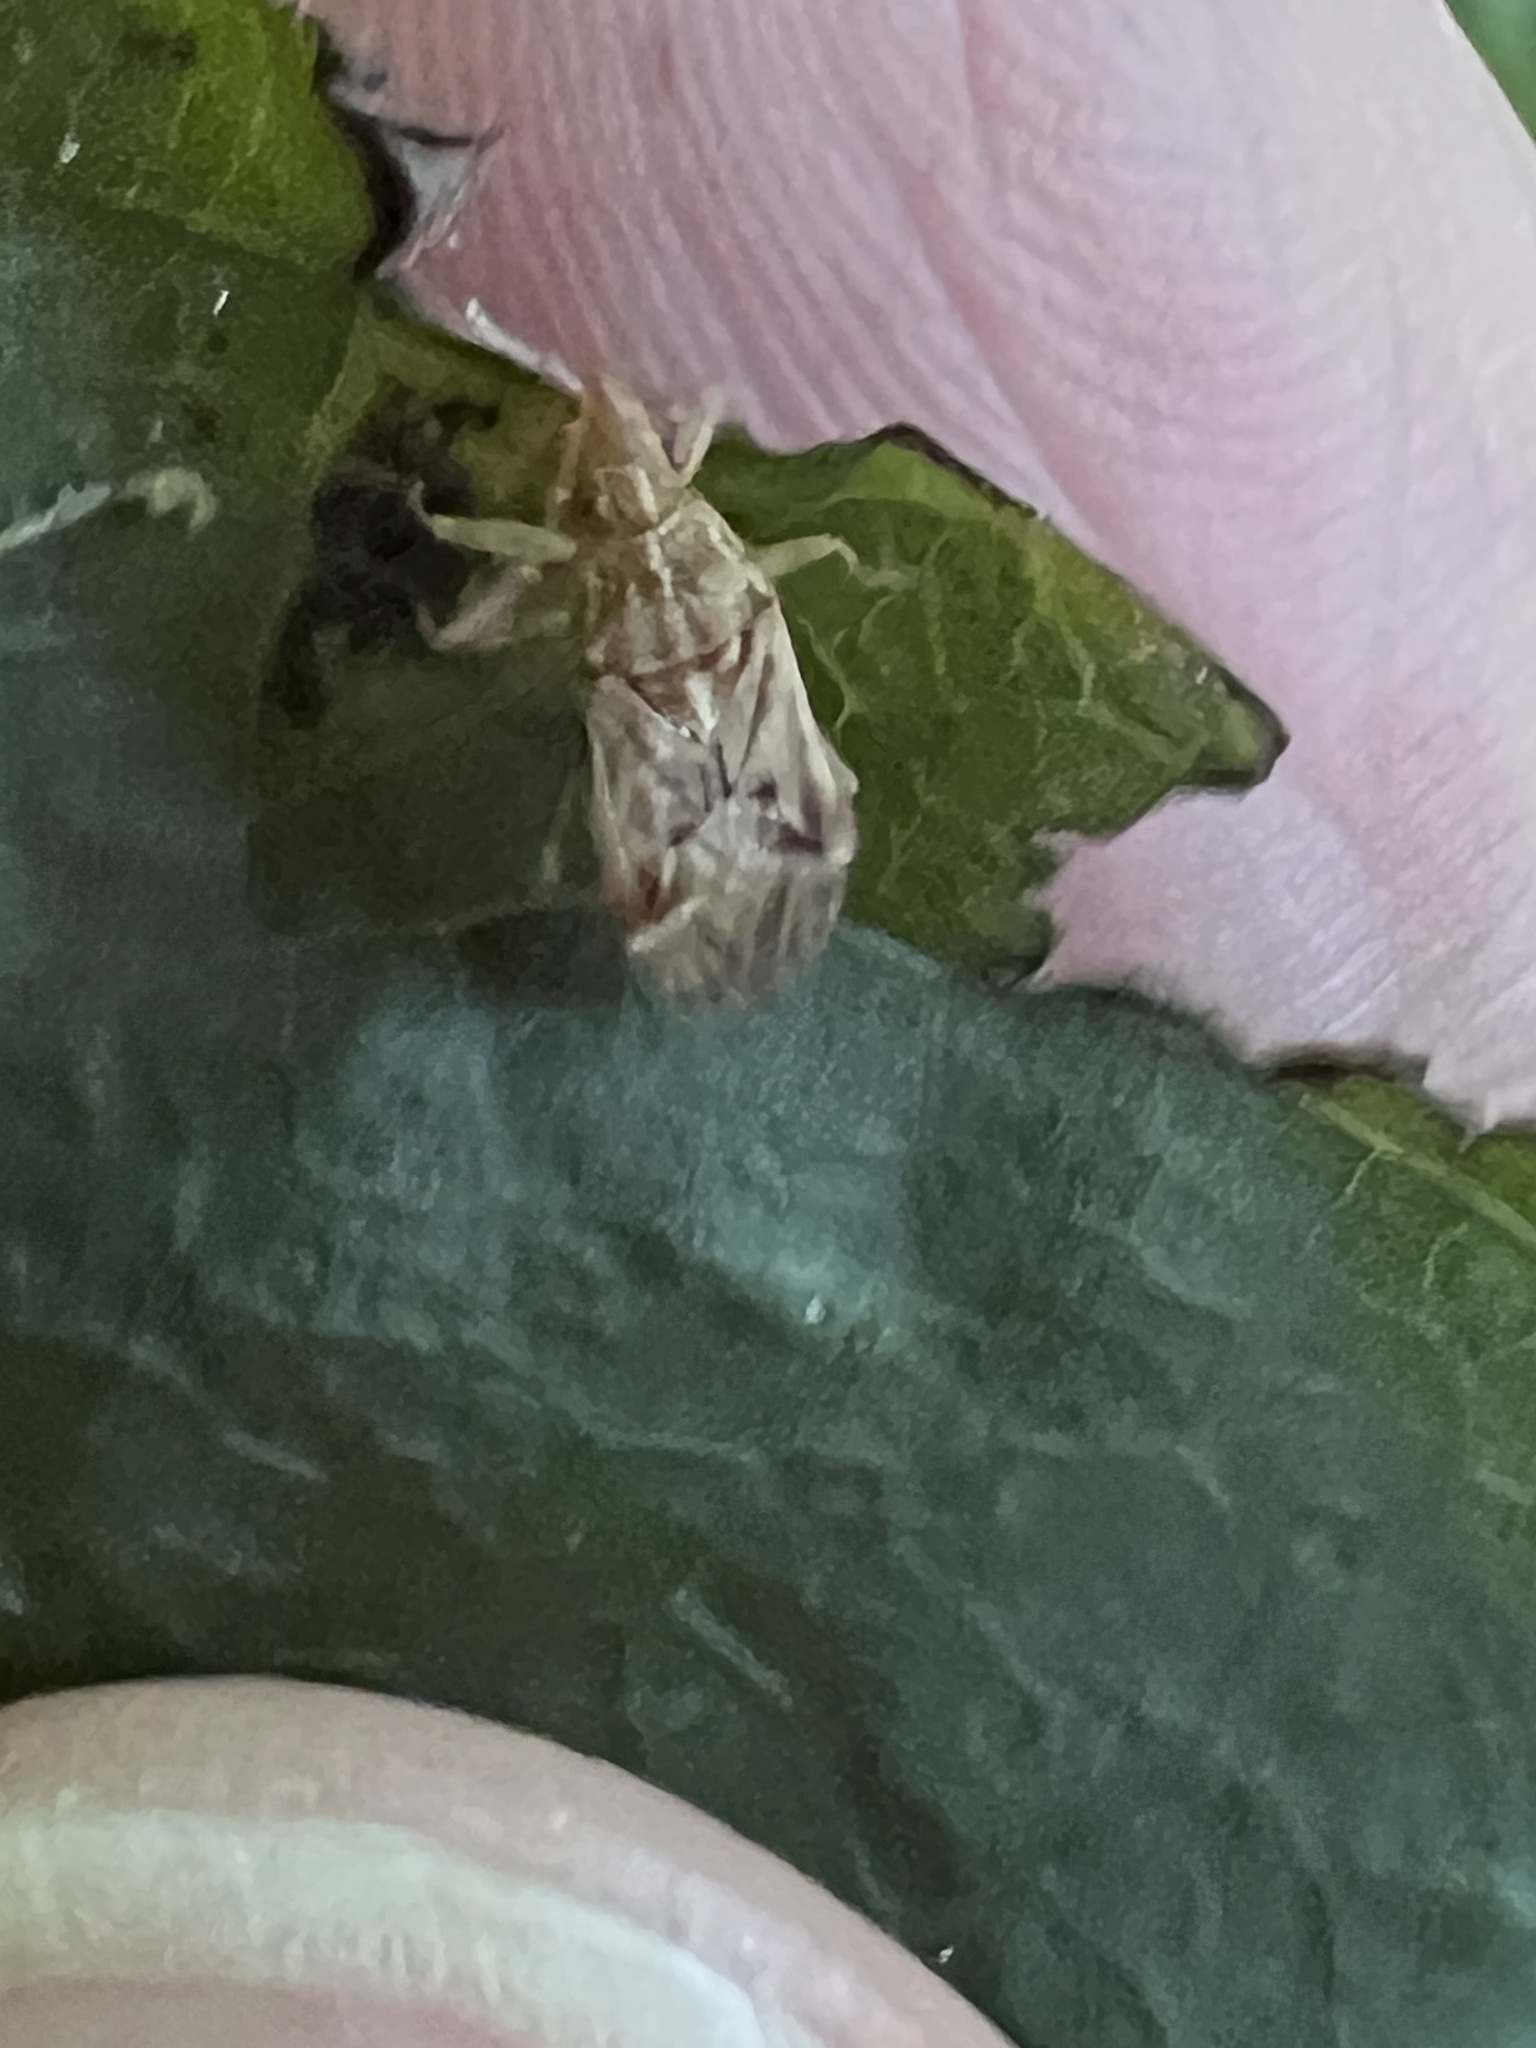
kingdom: Animalia
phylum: Arthropoda
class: Insecta
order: Hemiptera
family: Lygaeidae
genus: Belonochilus
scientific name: Belonochilus numenius
